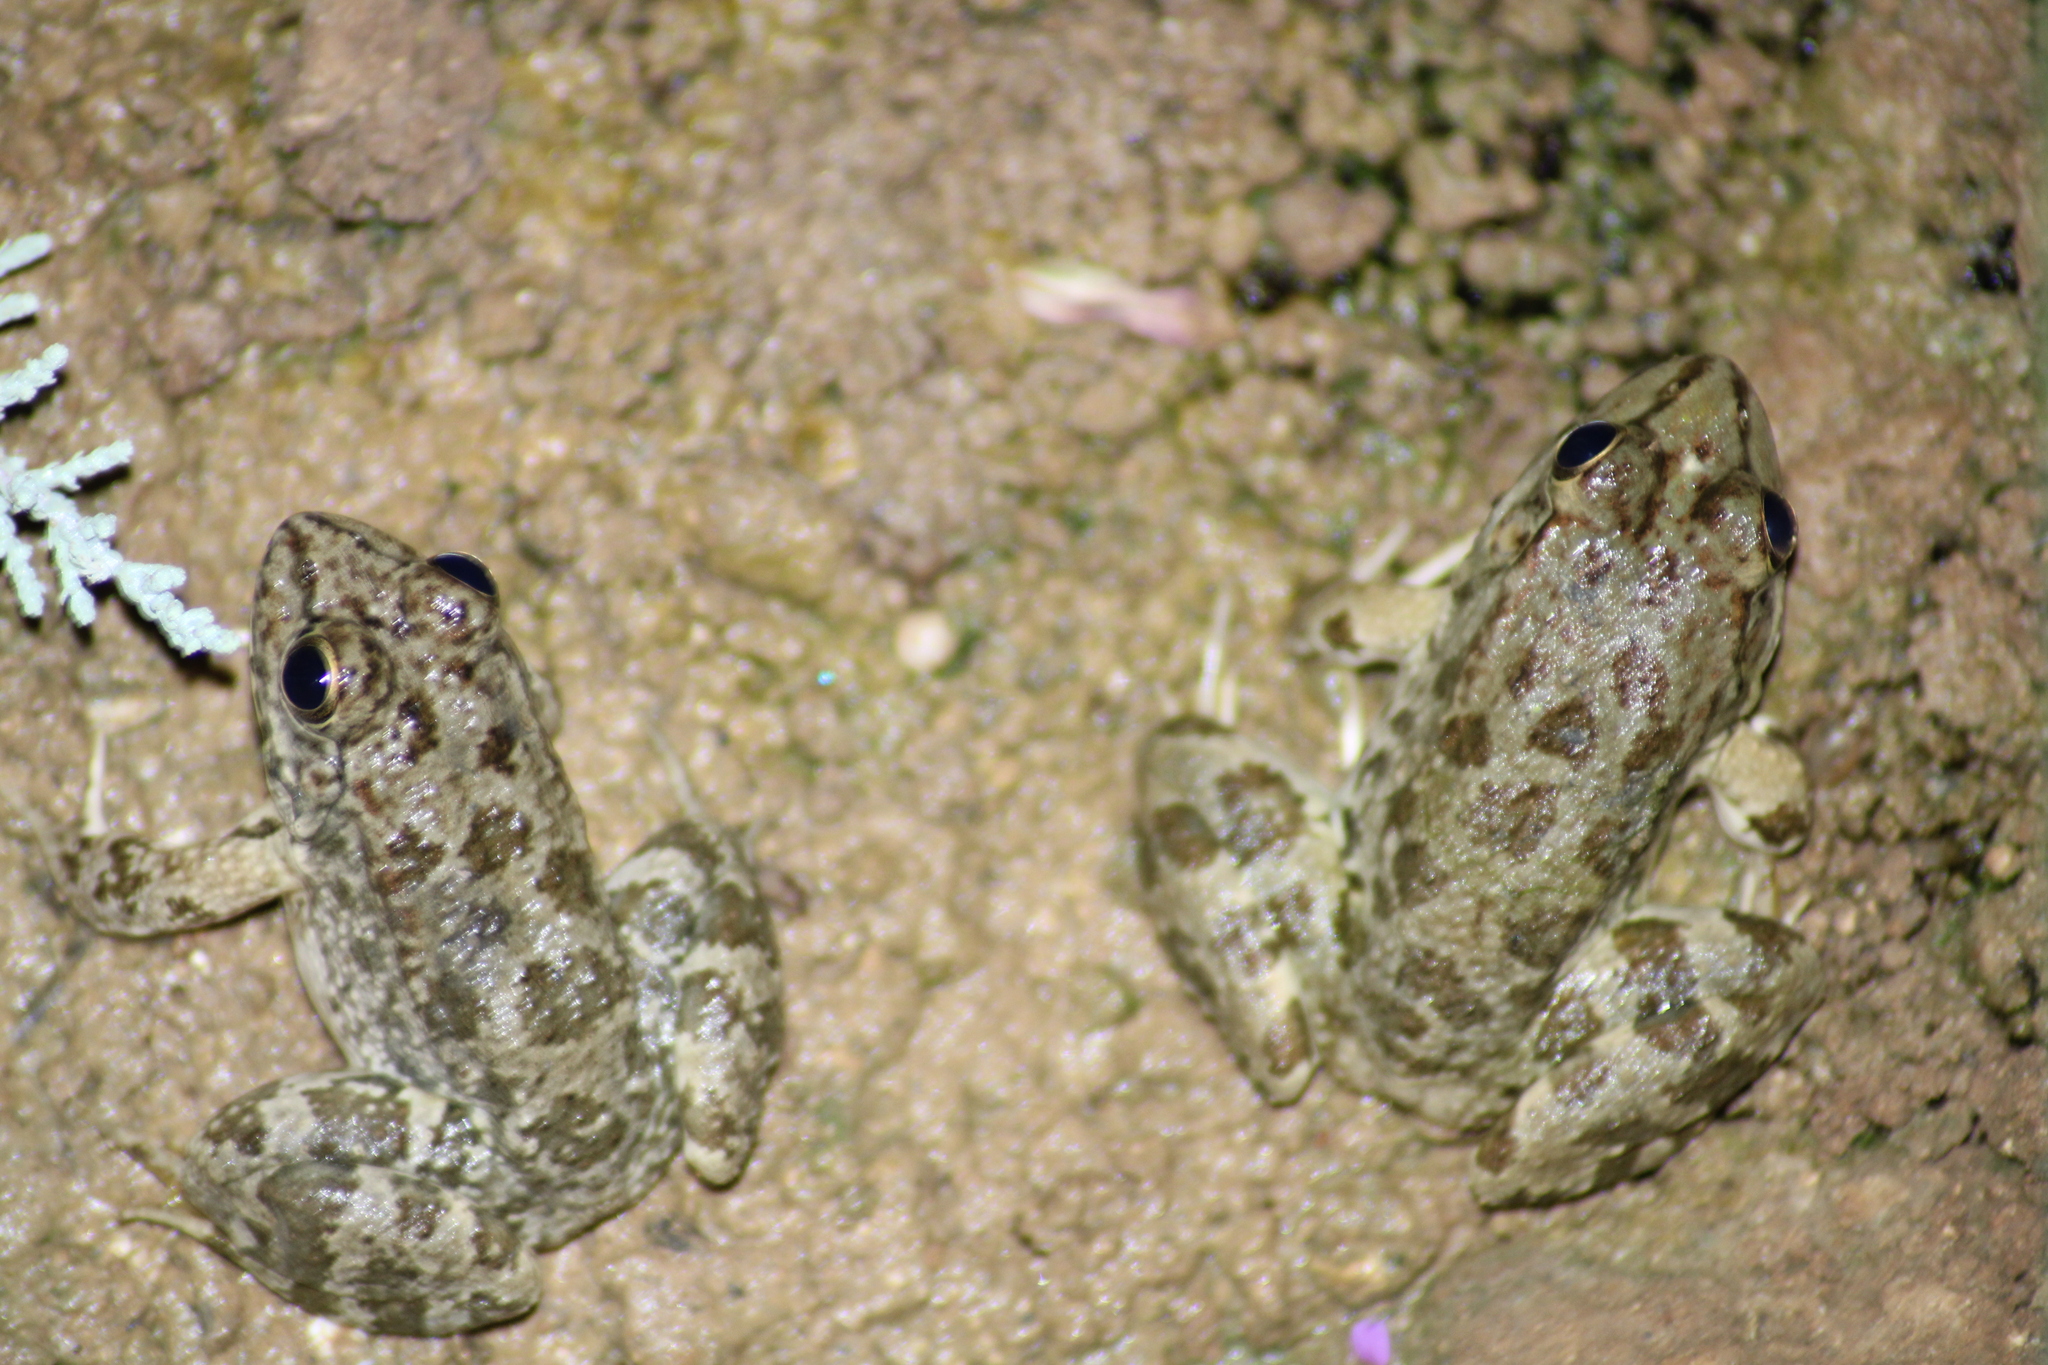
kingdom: Animalia
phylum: Chordata
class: Amphibia
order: Anura
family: Ranidae
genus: Pelophylax
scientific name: Pelophylax ridibundus
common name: Marsh frog
